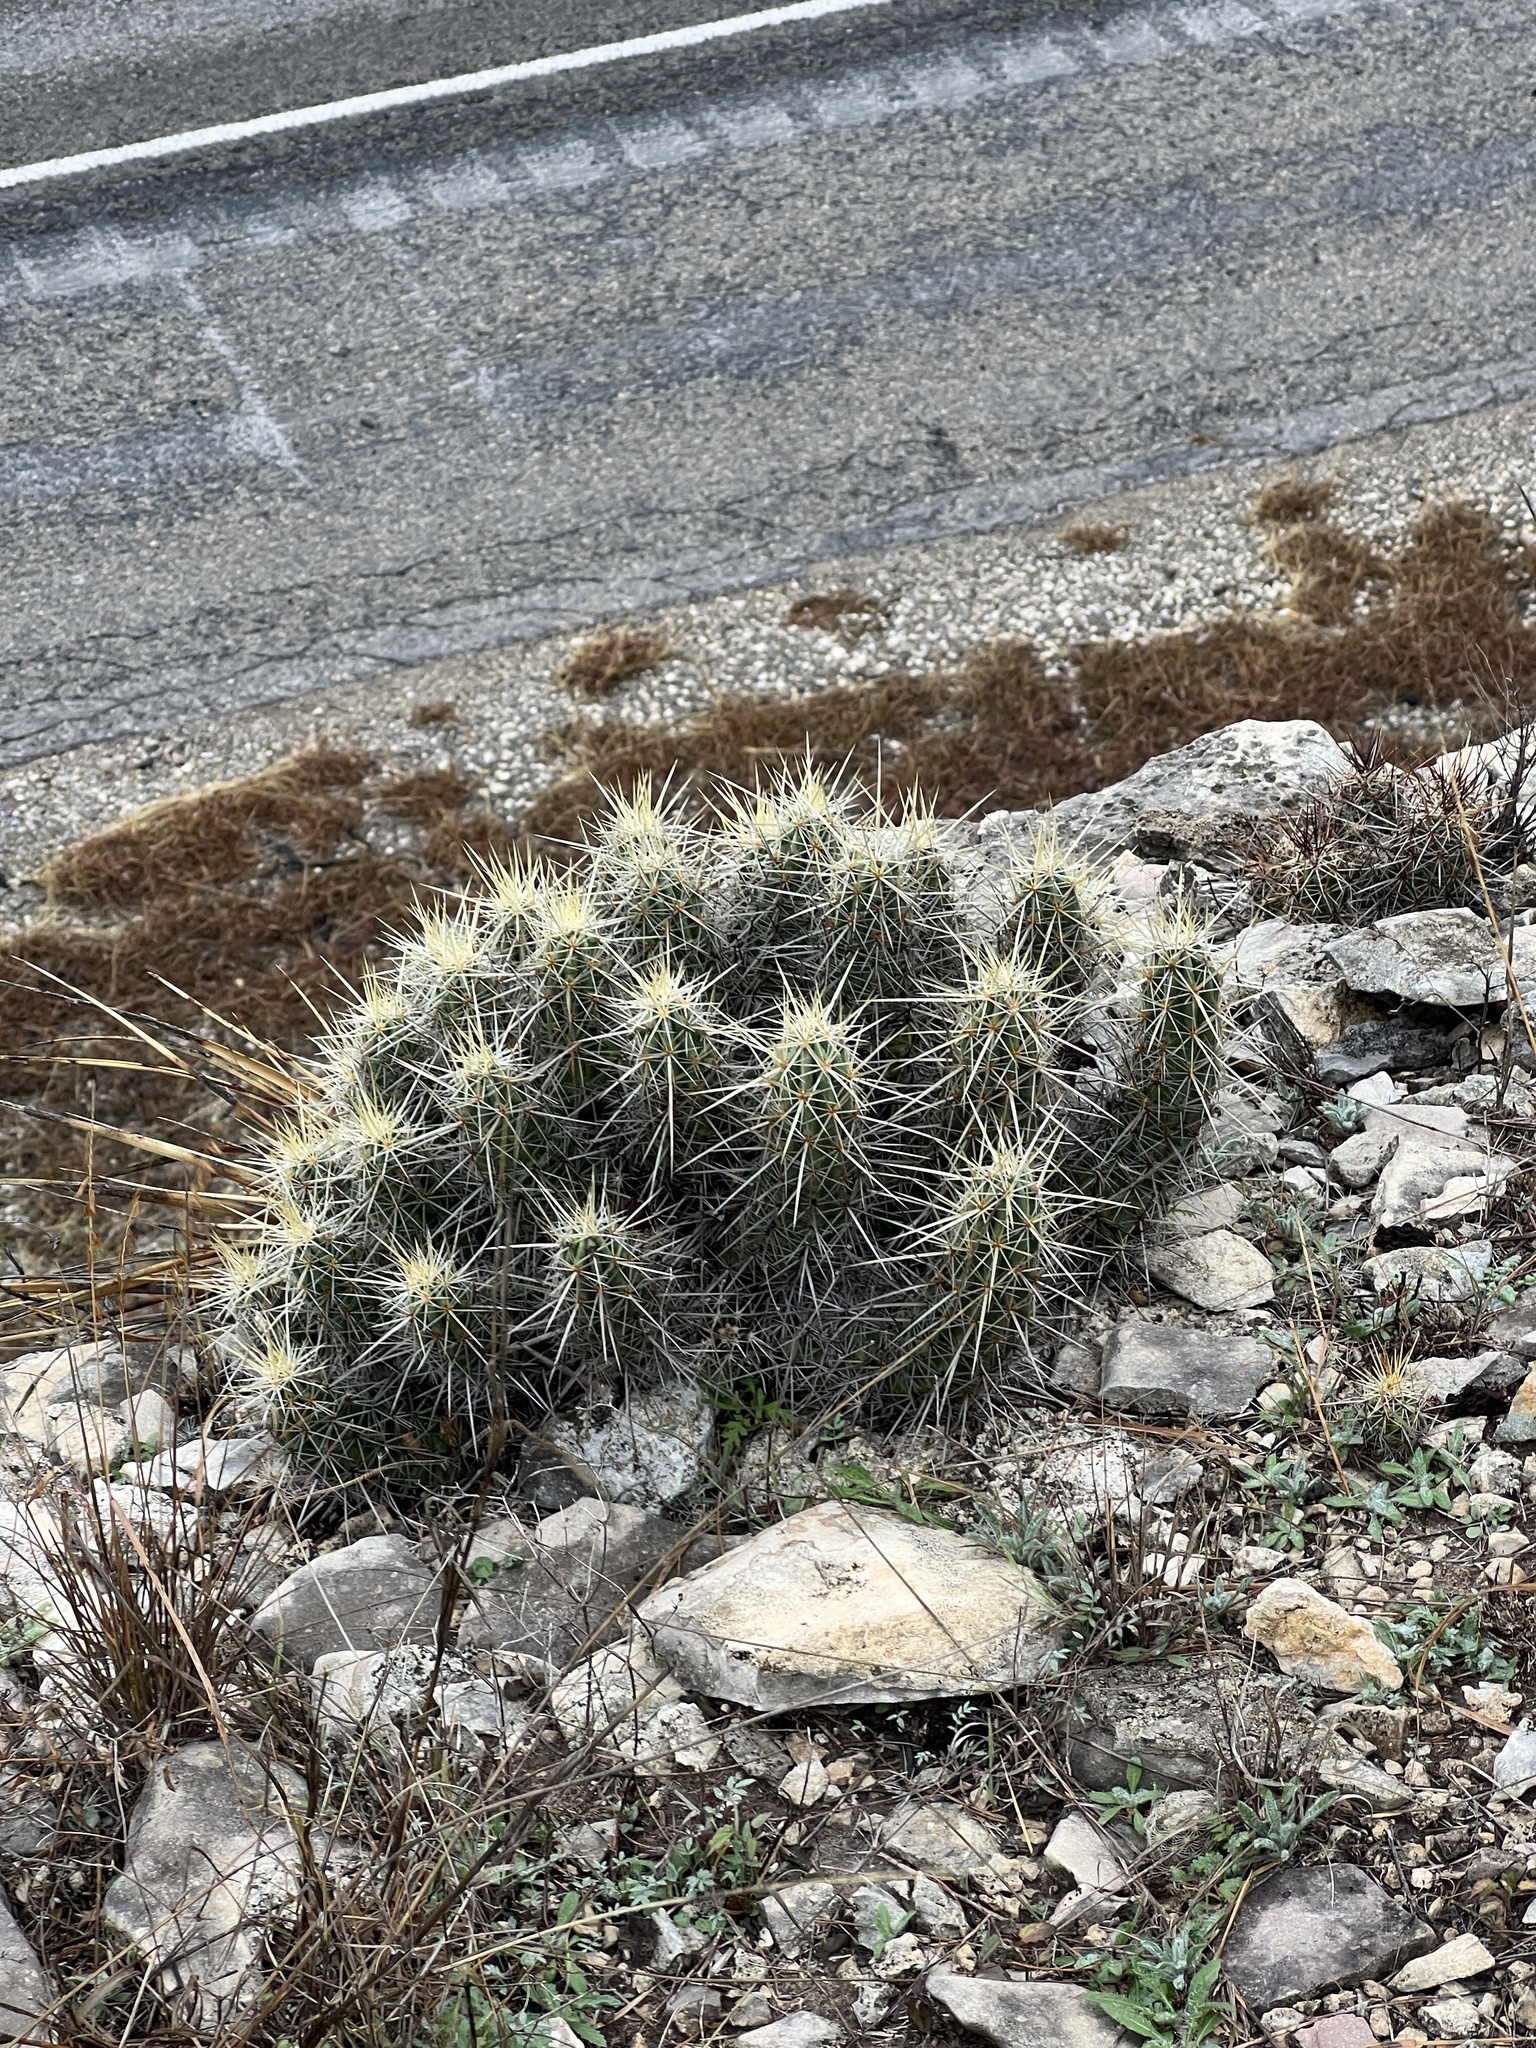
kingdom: Plantae
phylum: Tracheophyta
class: Magnoliopsida
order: Caryophyllales
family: Cactaceae
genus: Echinocereus
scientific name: Echinocereus enneacanthus
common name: Pitaya
